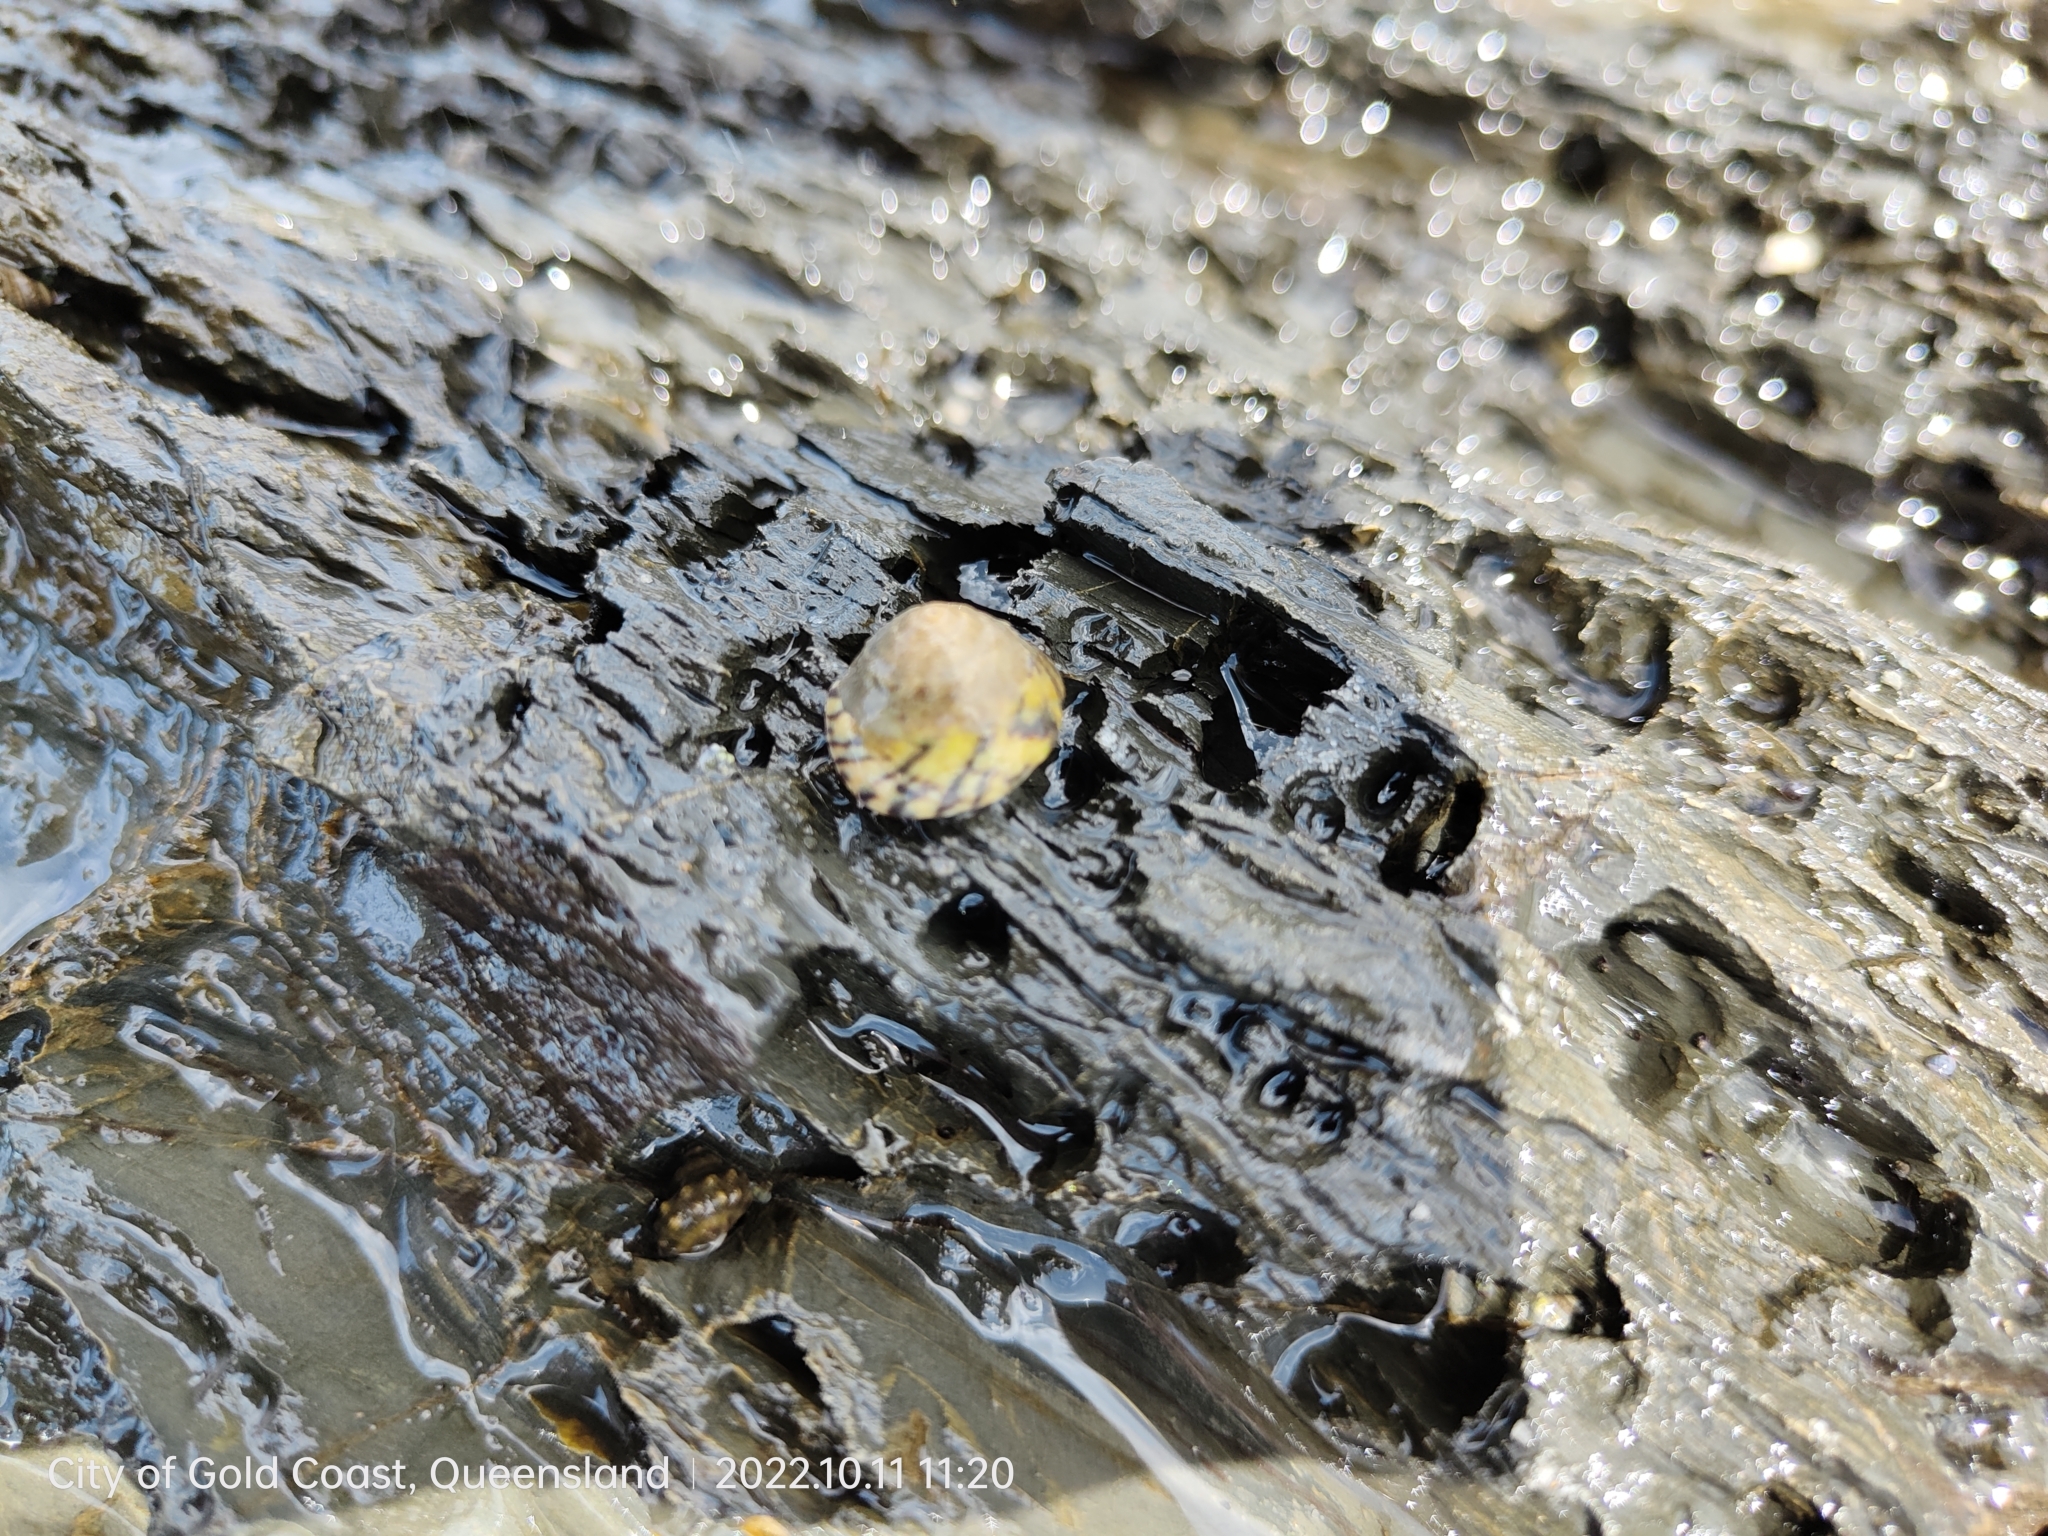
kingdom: Animalia
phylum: Mollusca
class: Gastropoda
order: Littorinimorpha
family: Littorinidae
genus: Bembicium
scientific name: Bembicium nanum
